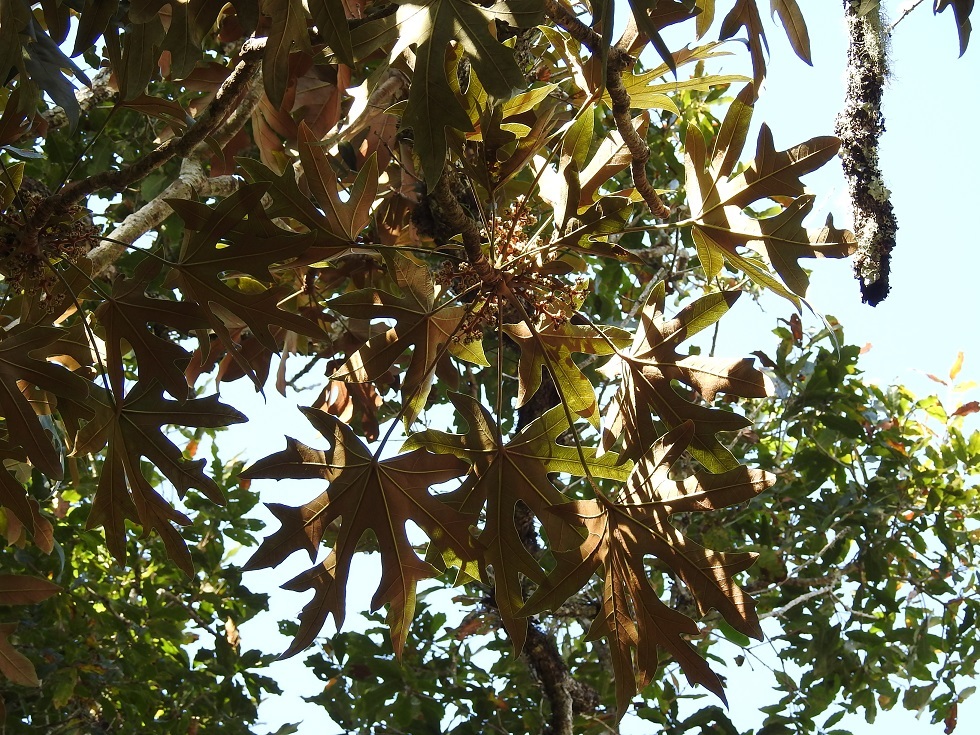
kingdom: Plantae
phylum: Tracheophyta
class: Magnoliopsida
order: Apiales
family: Araliaceae
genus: Oreopanax
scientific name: Oreopanax geminatus
